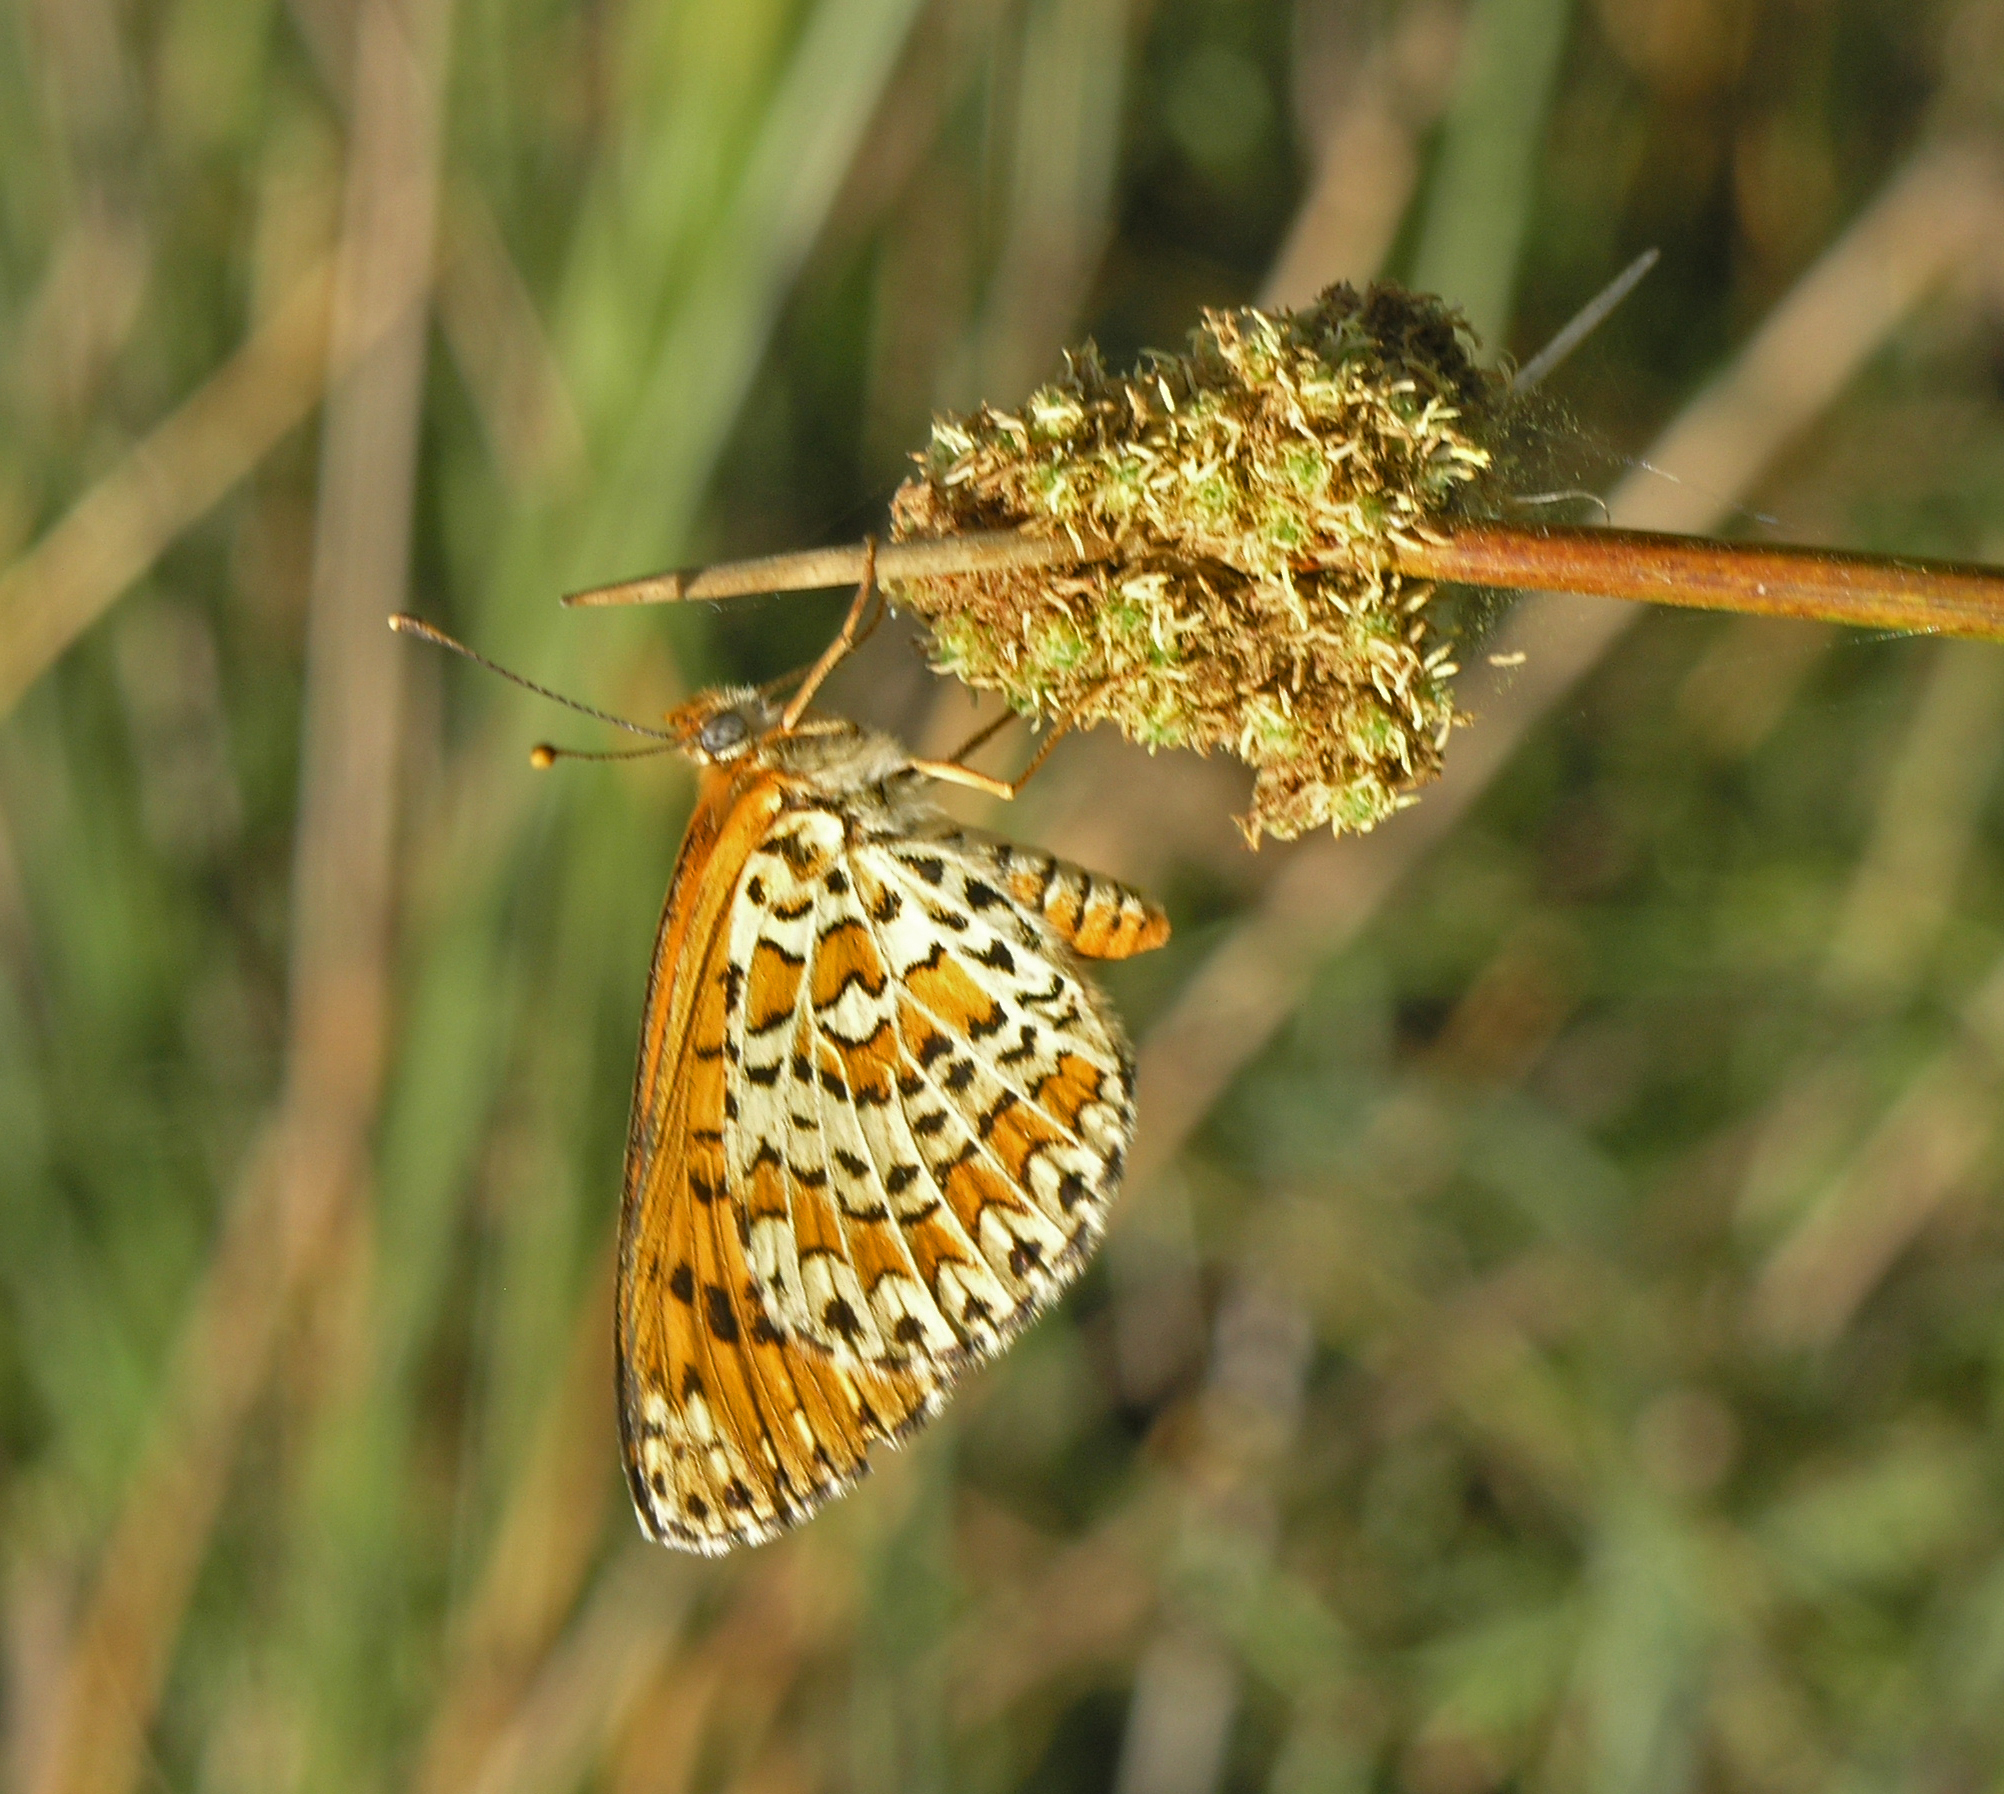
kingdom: Animalia
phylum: Arthropoda
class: Insecta
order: Lepidoptera
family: Nymphalidae
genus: Melitaea
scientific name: Melitaea trivia
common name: Lesser spotted fritillary
